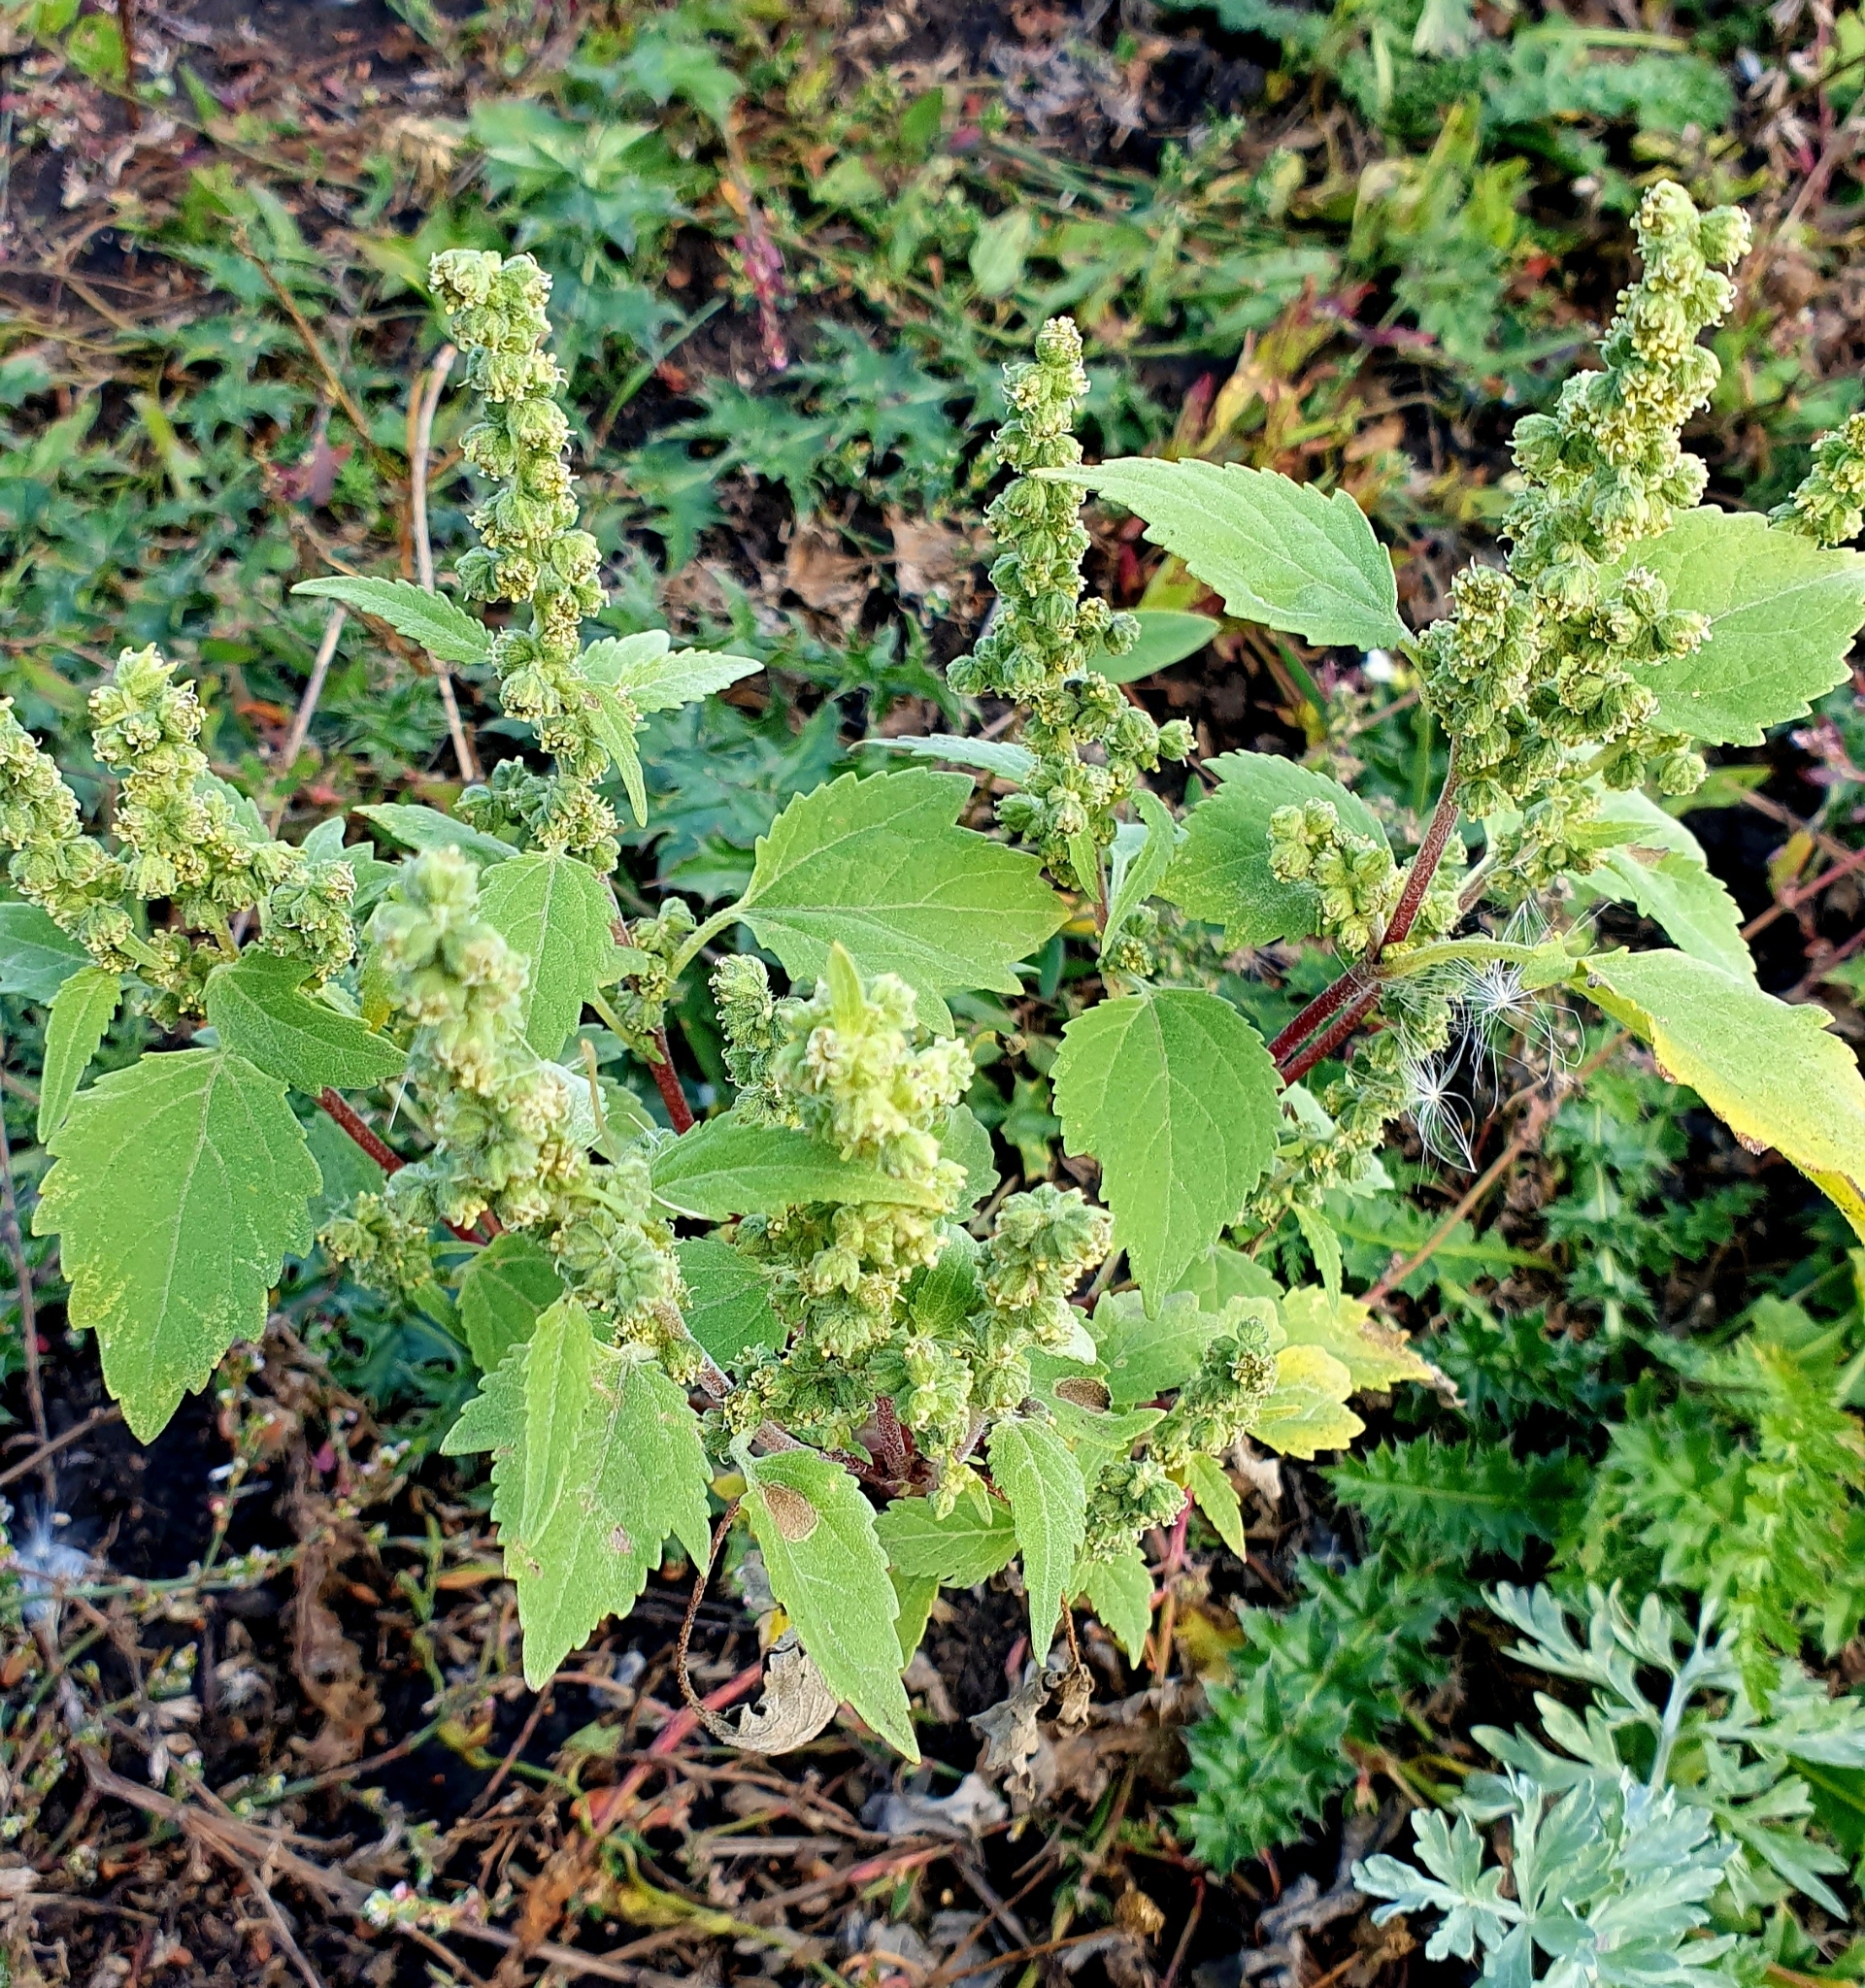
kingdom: Plantae
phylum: Tracheophyta
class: Magnoliopsida
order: Asterales
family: Asteraceae
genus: Cyclachaena
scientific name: Cyclachaena xanthiifolia
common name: Giant sumpweed
